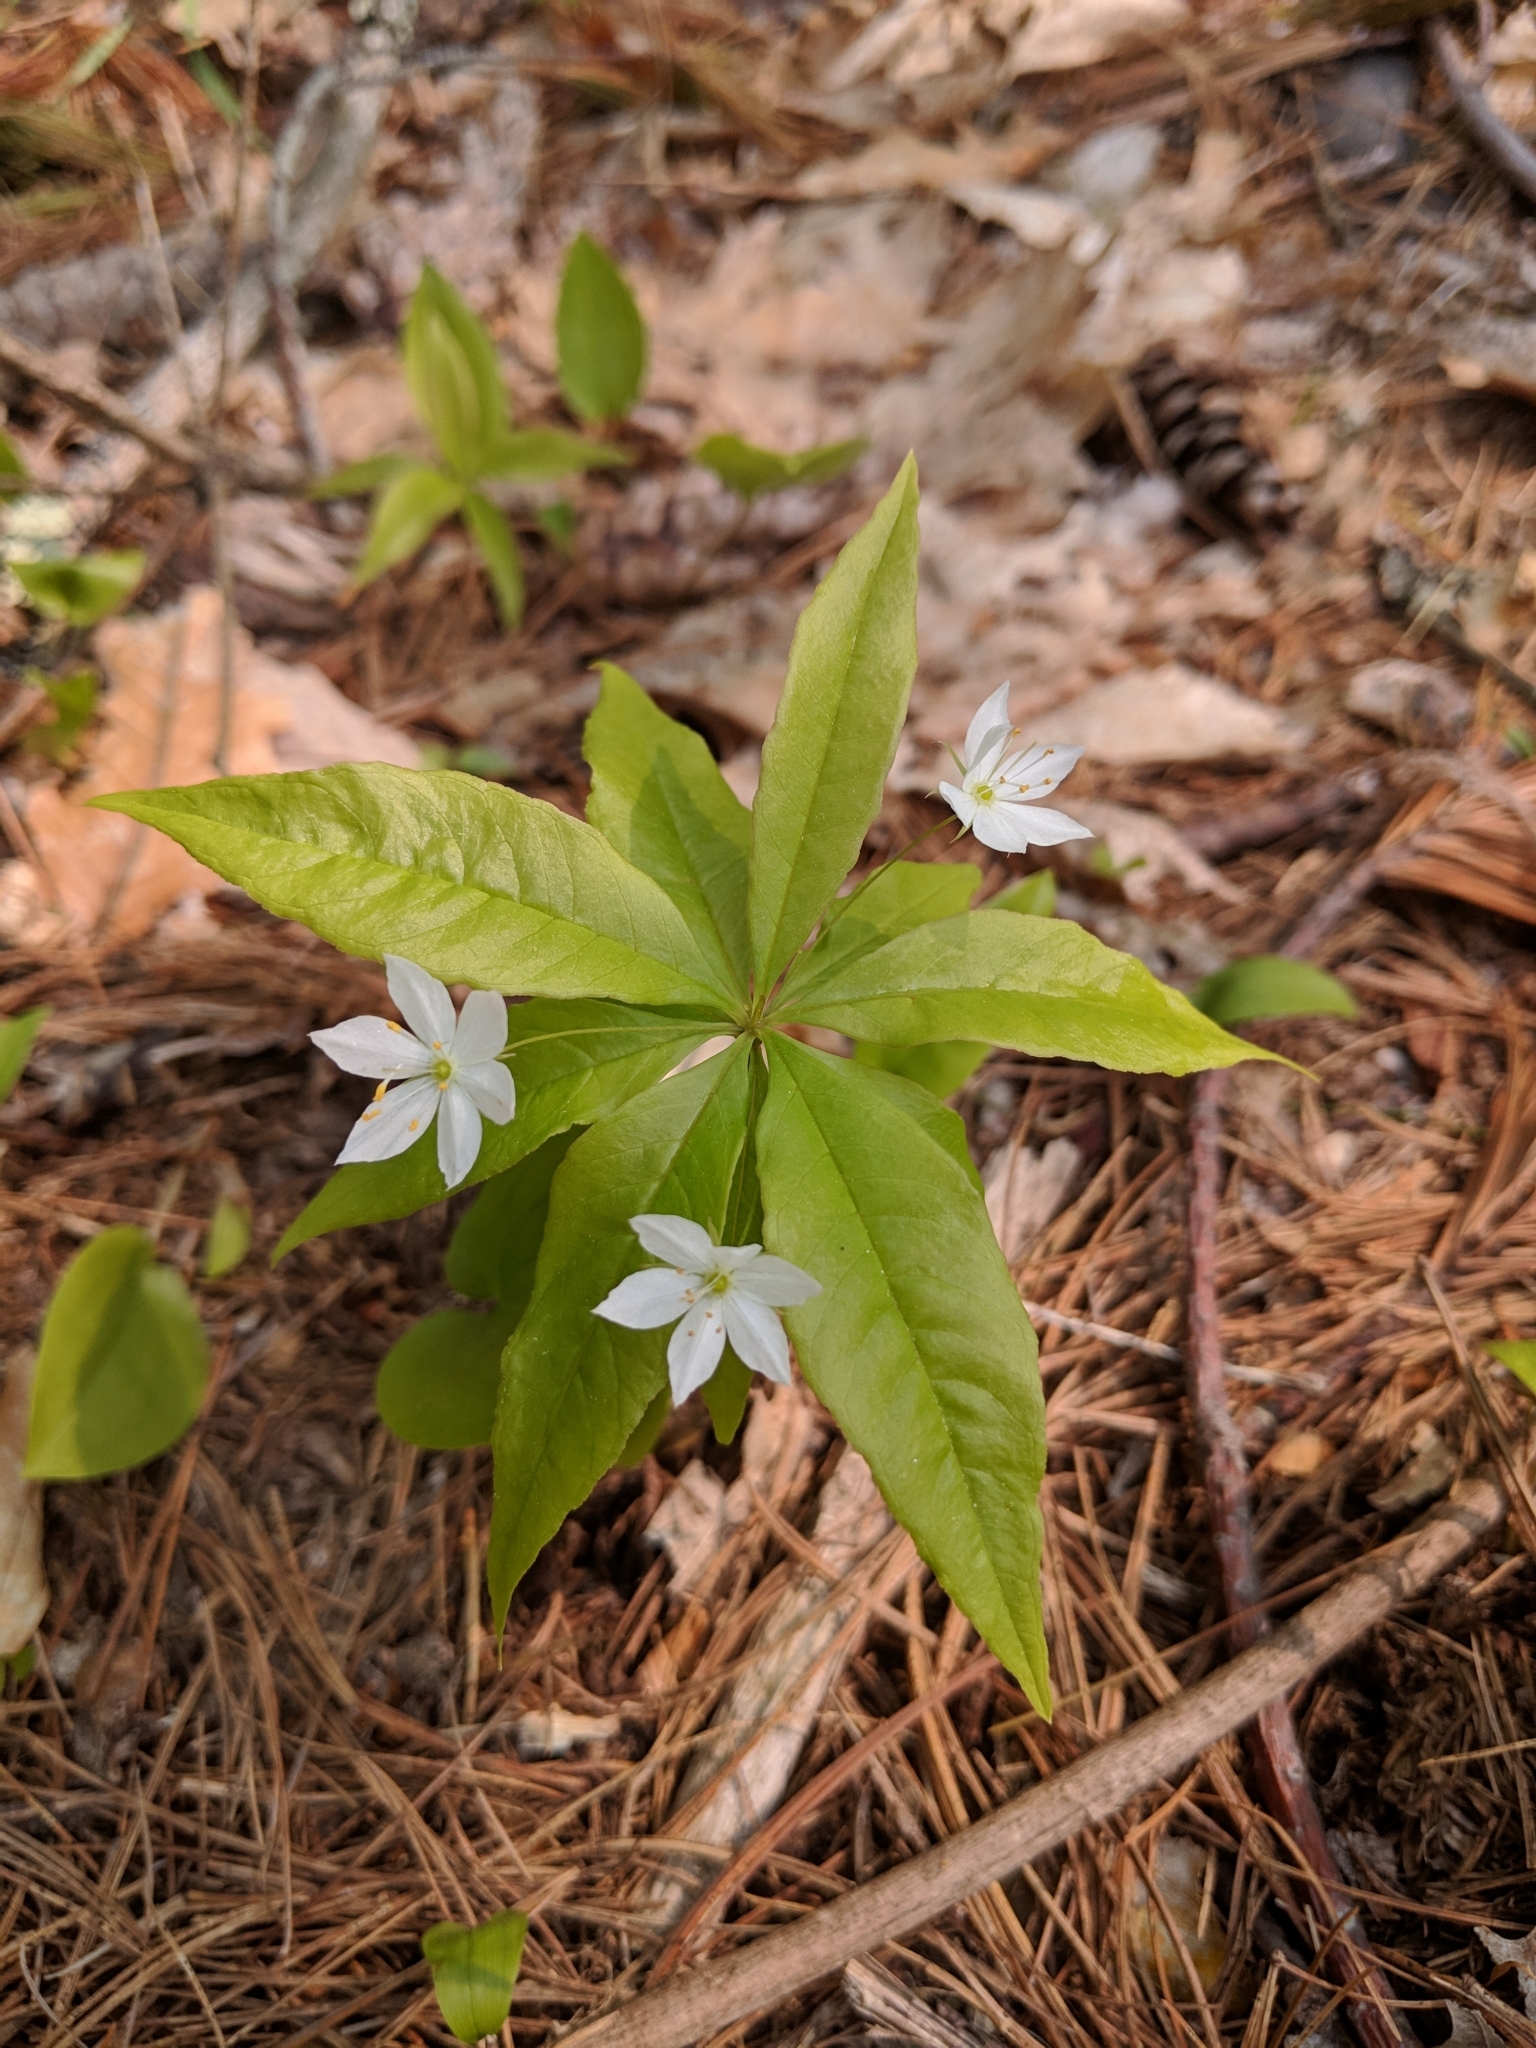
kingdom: Plantae
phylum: Tracheophyta
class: Magnoliopsida
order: Ericales
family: Primulaceae
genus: Lysimachia
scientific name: Lysimachia borealis
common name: American starflower
